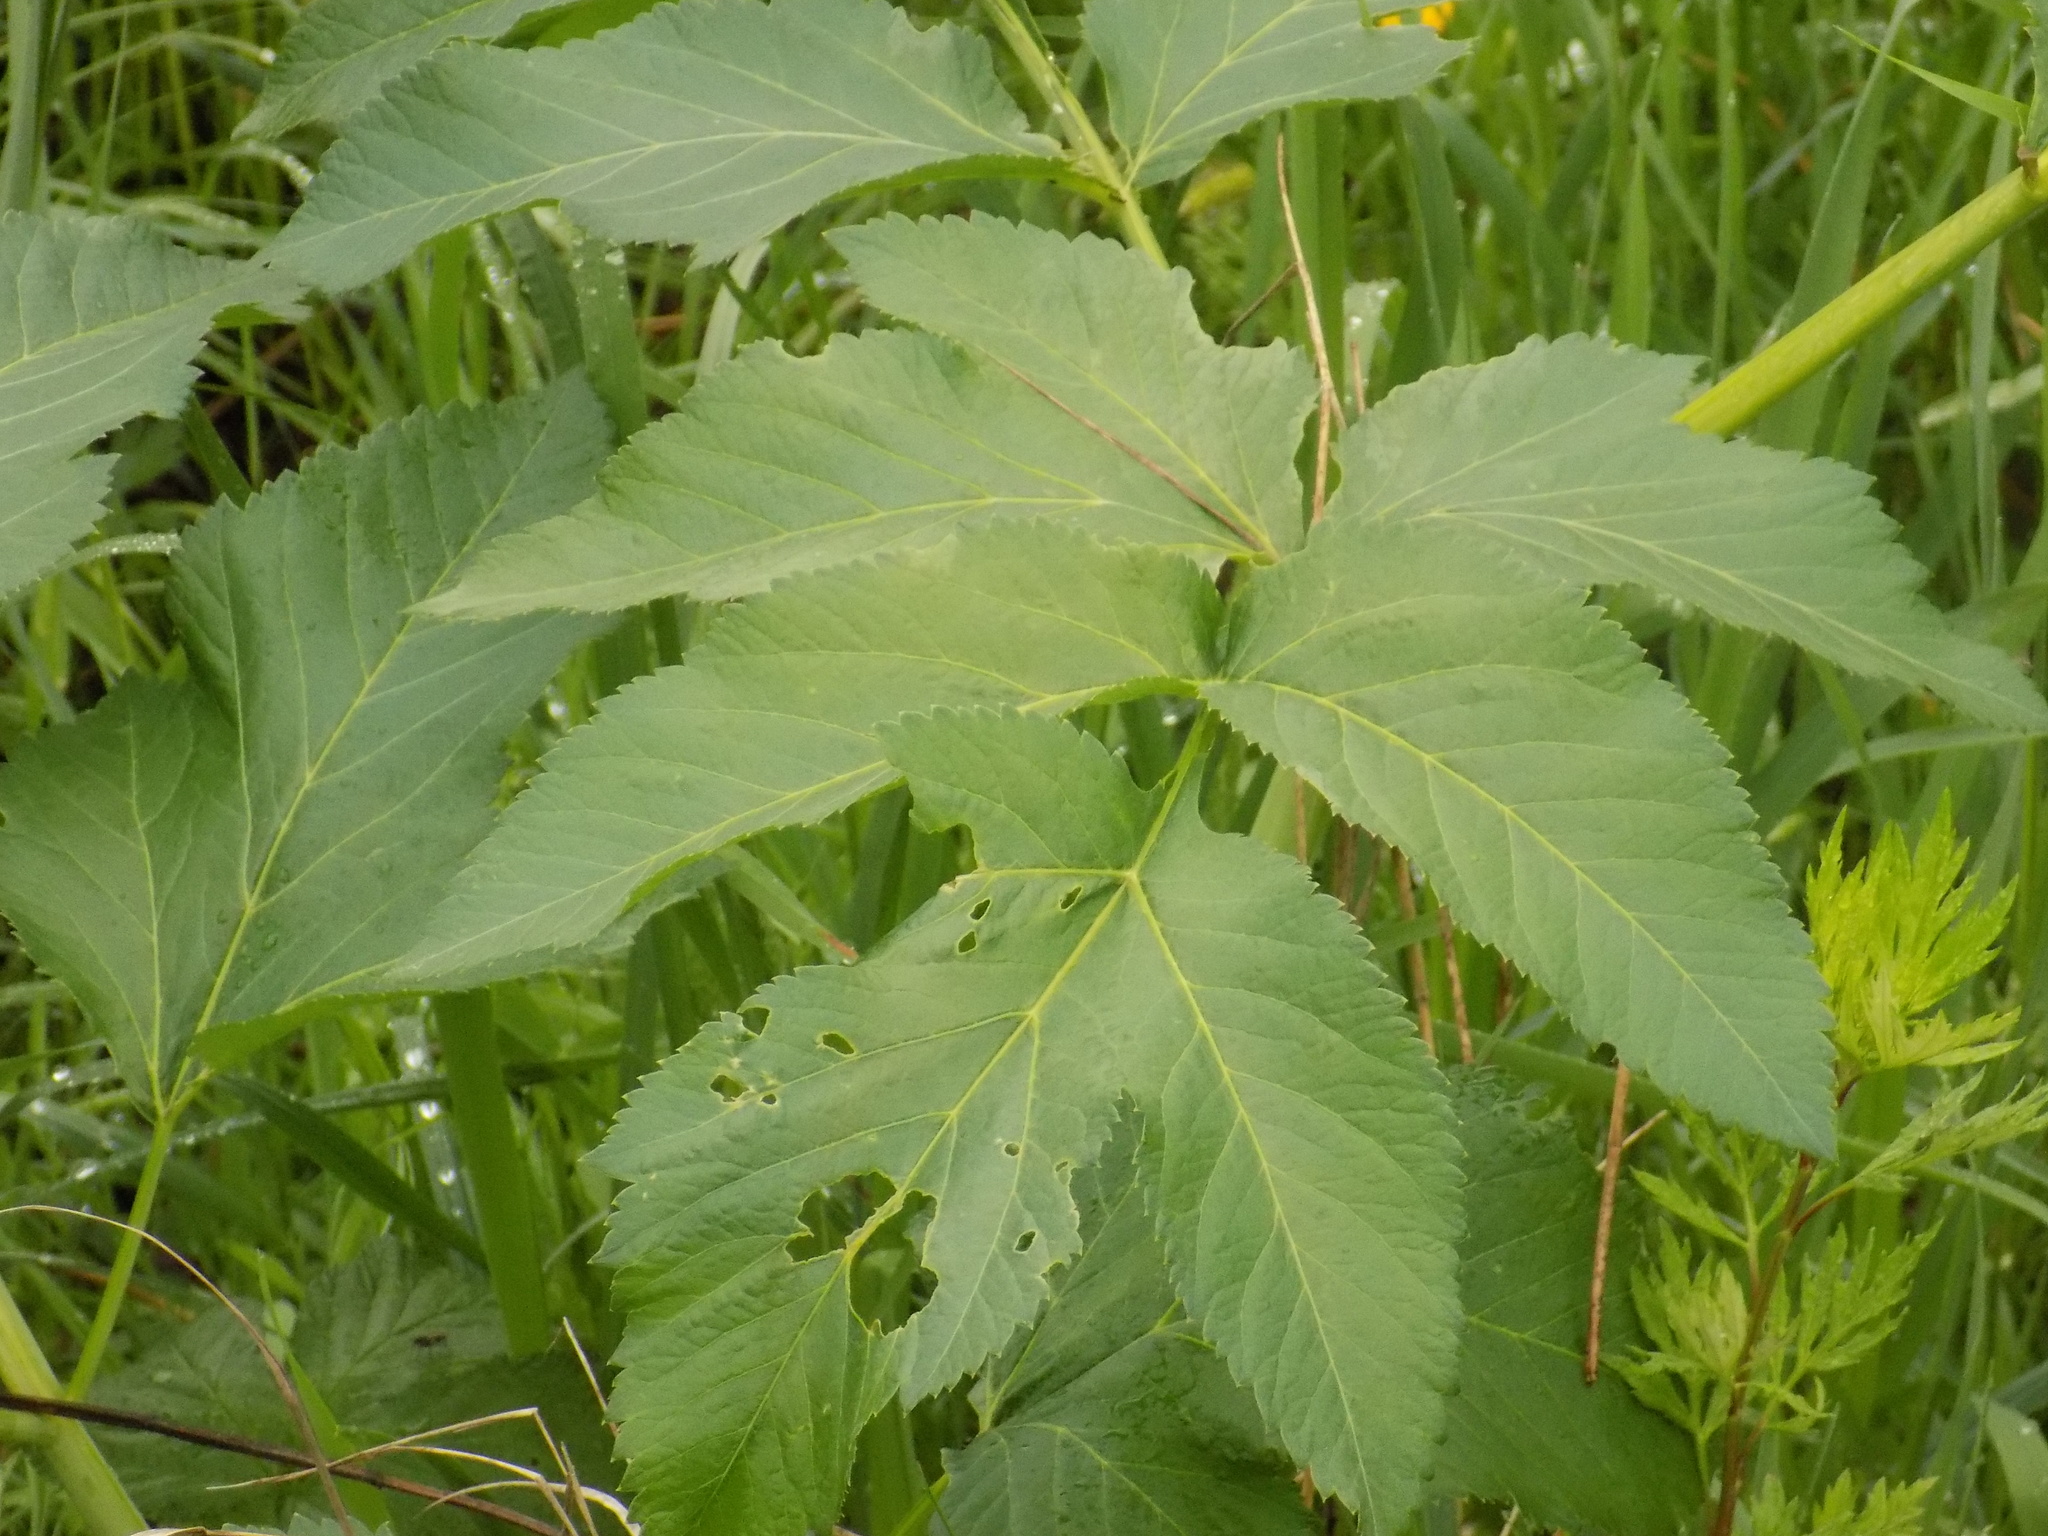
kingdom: Plantae
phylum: Tracheophyta
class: Magnoliopsida
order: Apiales
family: Apiaceae
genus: Angelica
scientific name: Angelica decurrens
